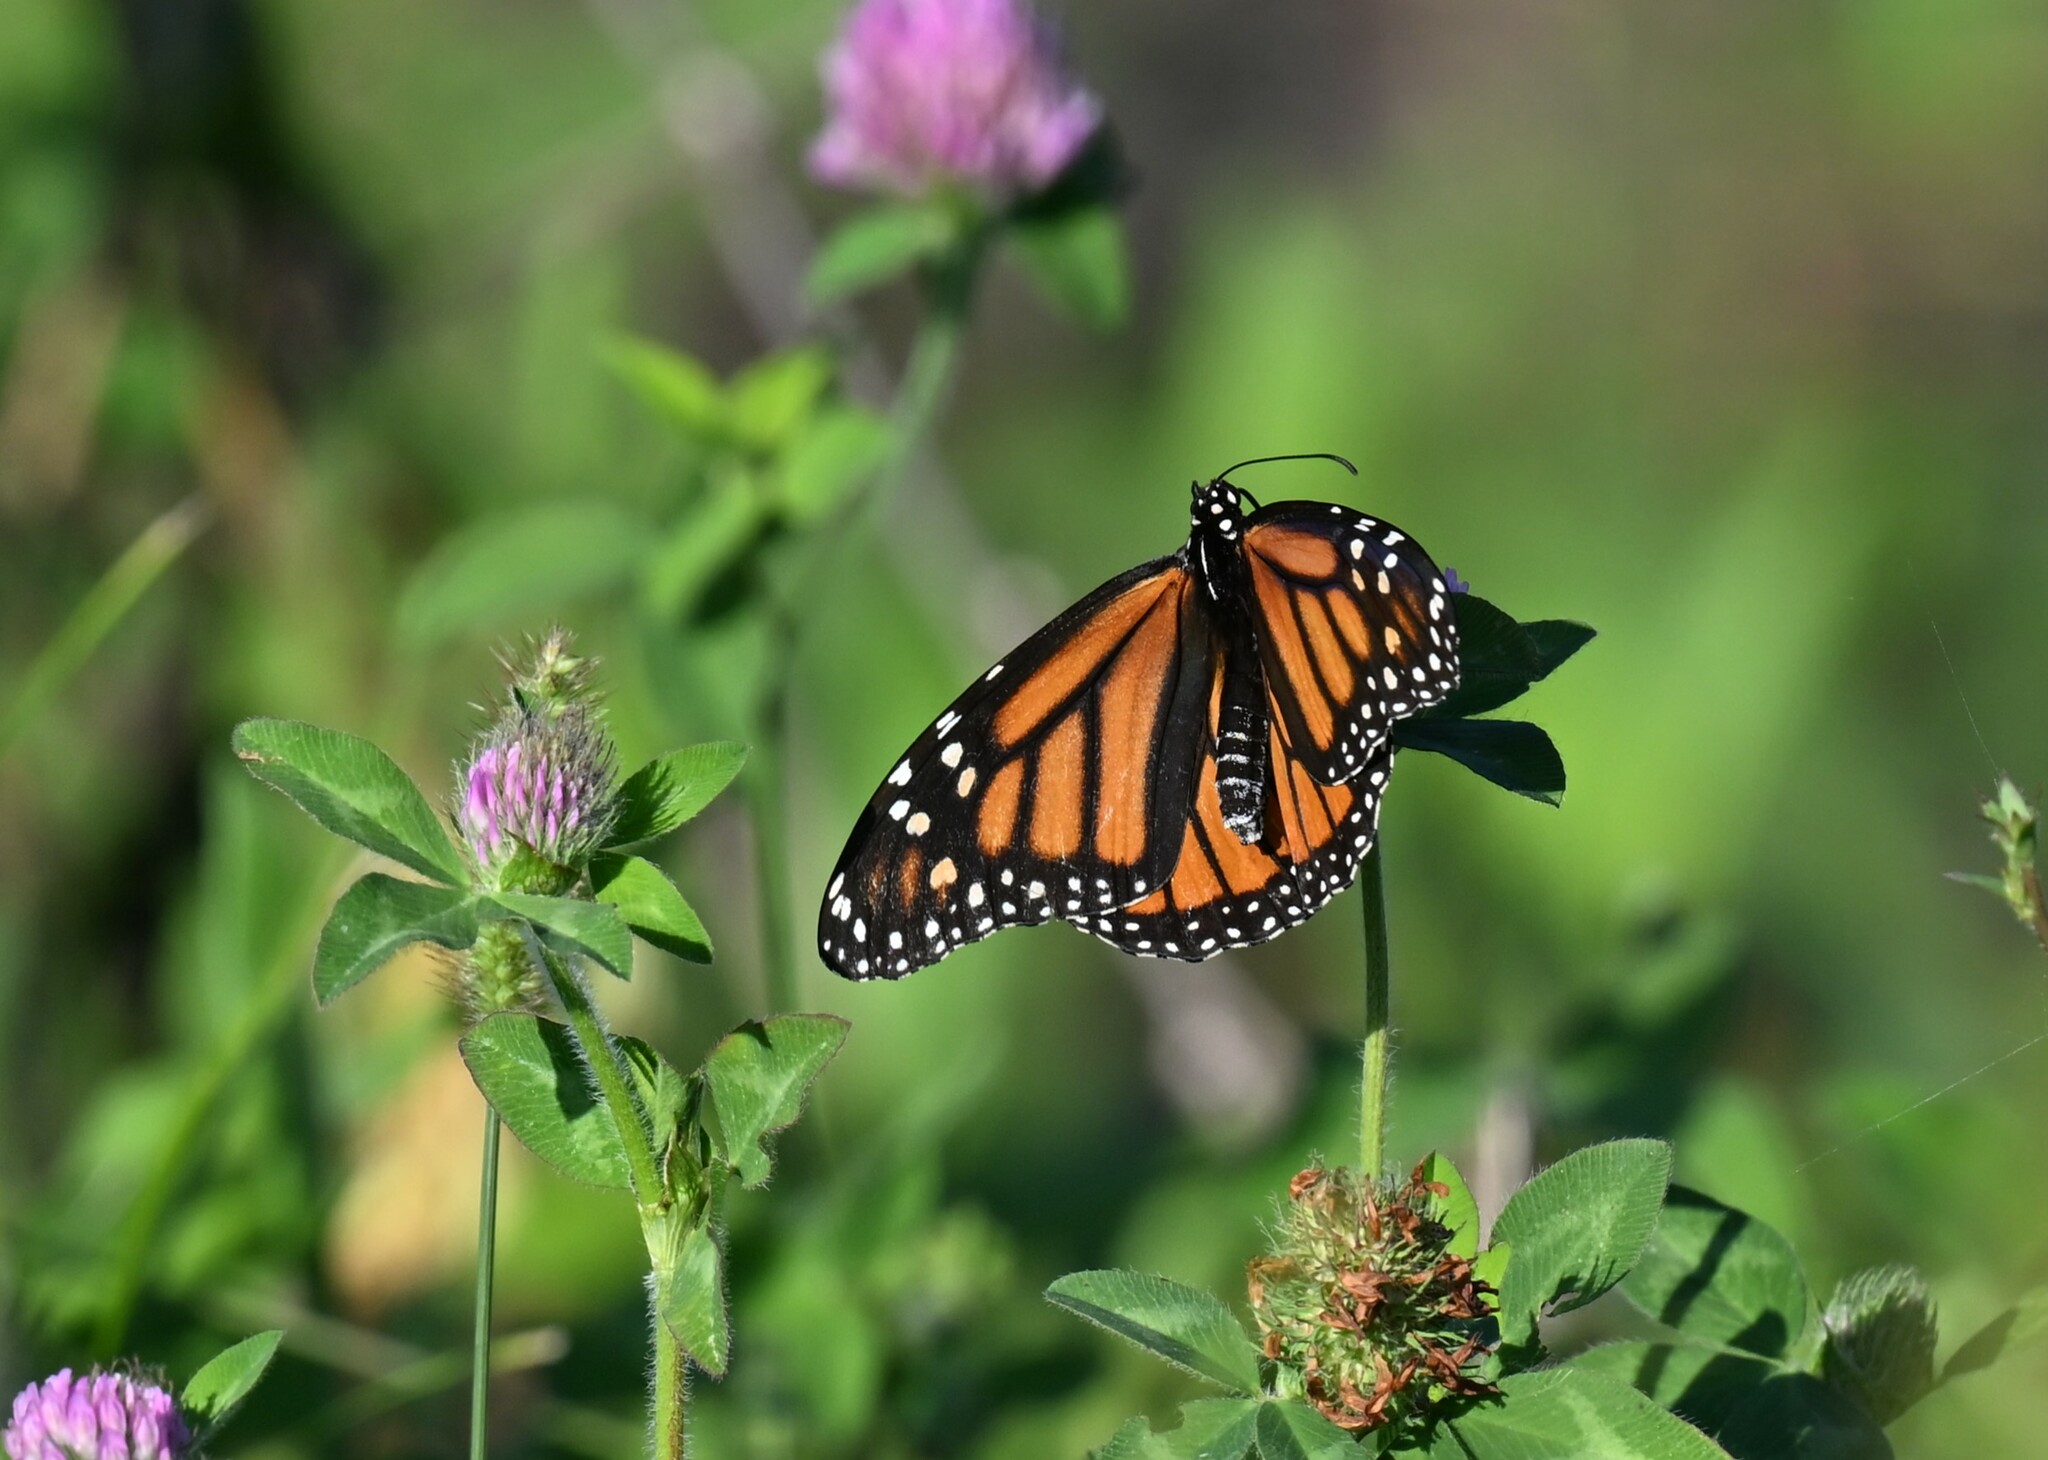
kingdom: Animalia
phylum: Arthropoda
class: Insecta
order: Lepidoptera
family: Nymphalidae
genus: Danaus
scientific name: Danaus plexippus
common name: Monarch
